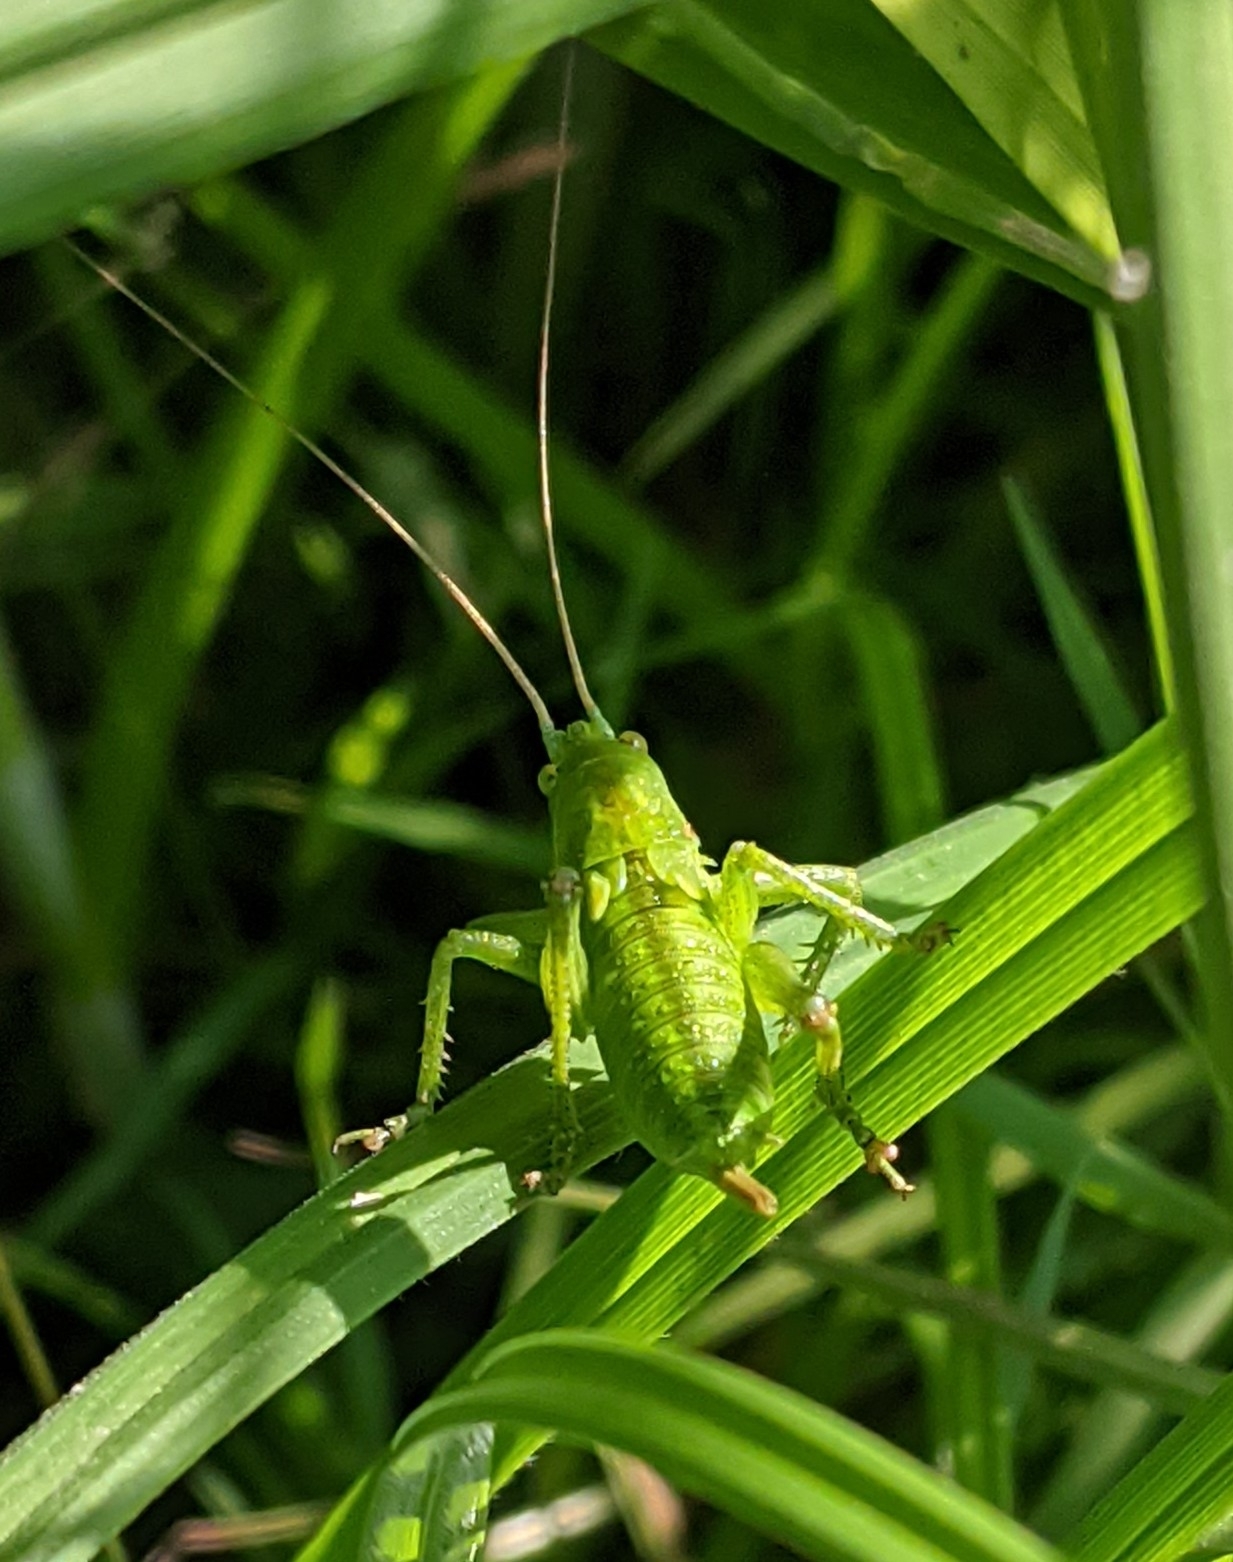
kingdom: Animalia
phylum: Arthropoda
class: Insecta
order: Orthoptera
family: Tettigoniidae
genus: Tettigonia
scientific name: Tettigonia cantans
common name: Upland green bush-cricket
